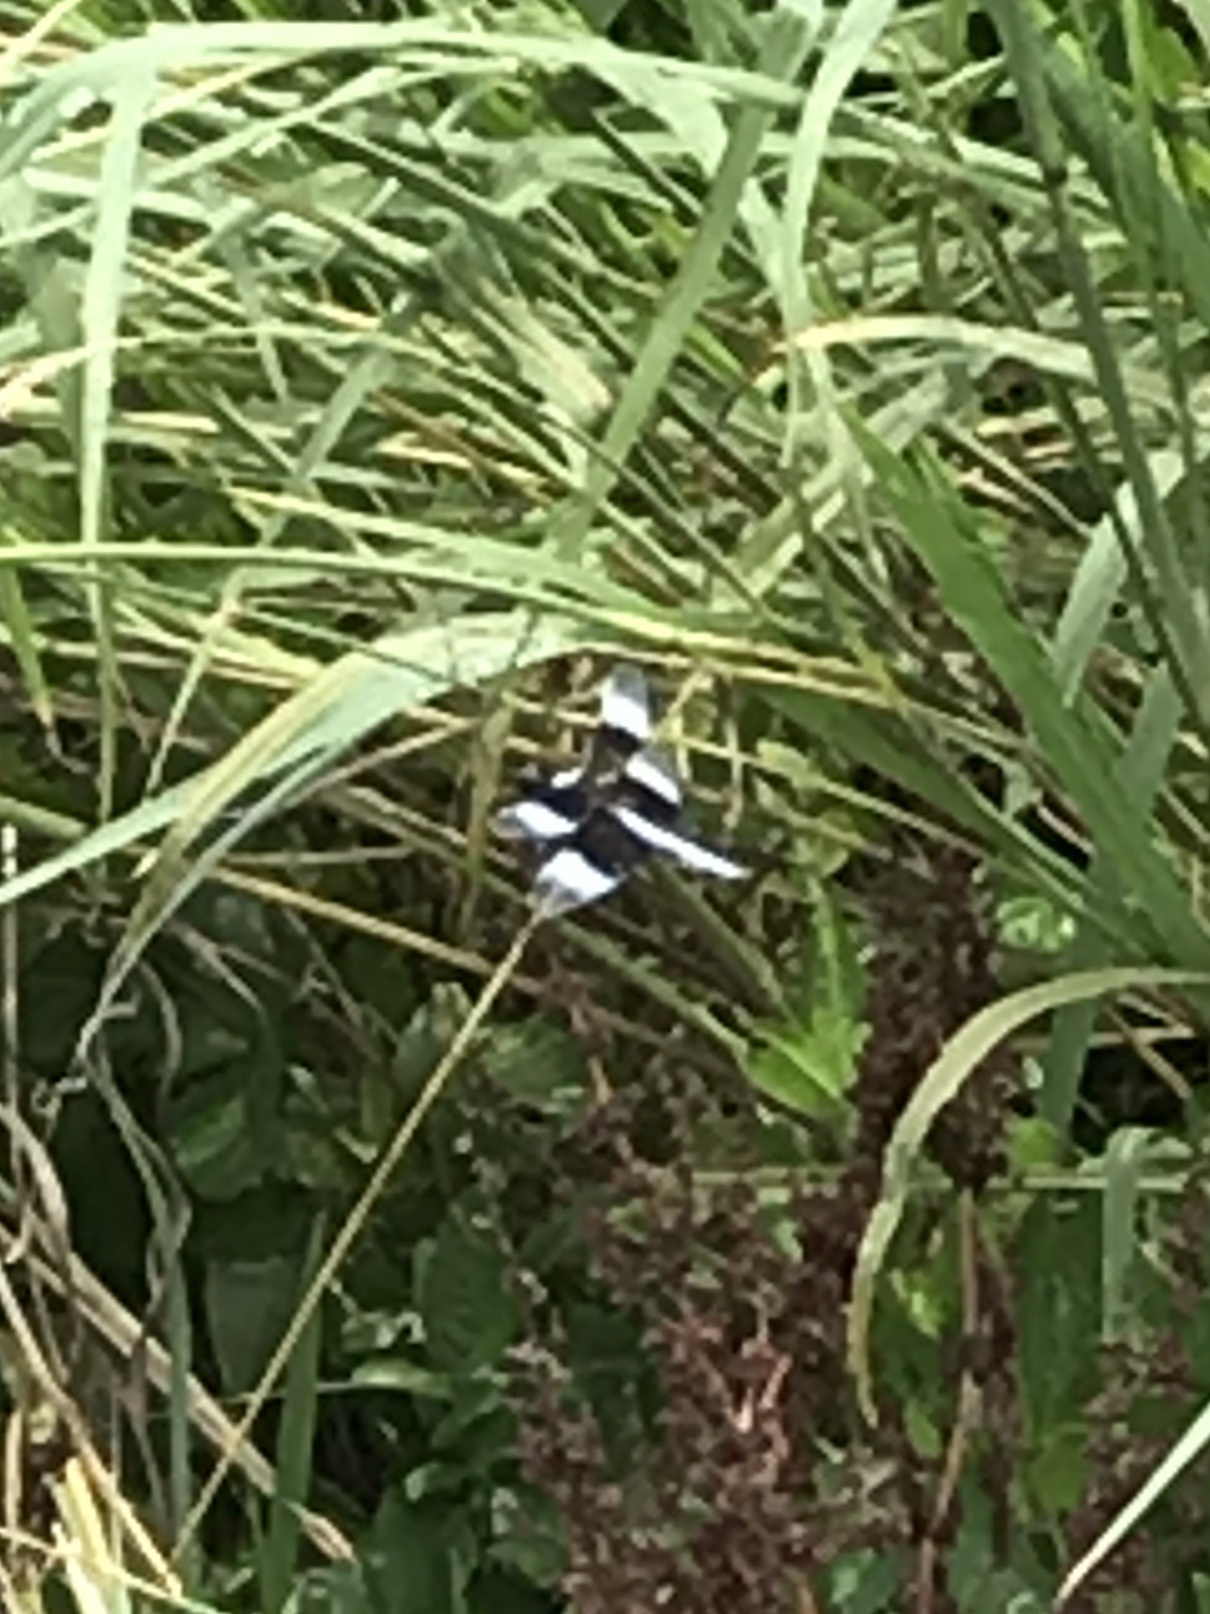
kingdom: Animalia
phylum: Arthropoda
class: Insecta
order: Odonata
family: Libellulidae
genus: Libellula
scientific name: Libellula luctuosa
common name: Widow skimmer
